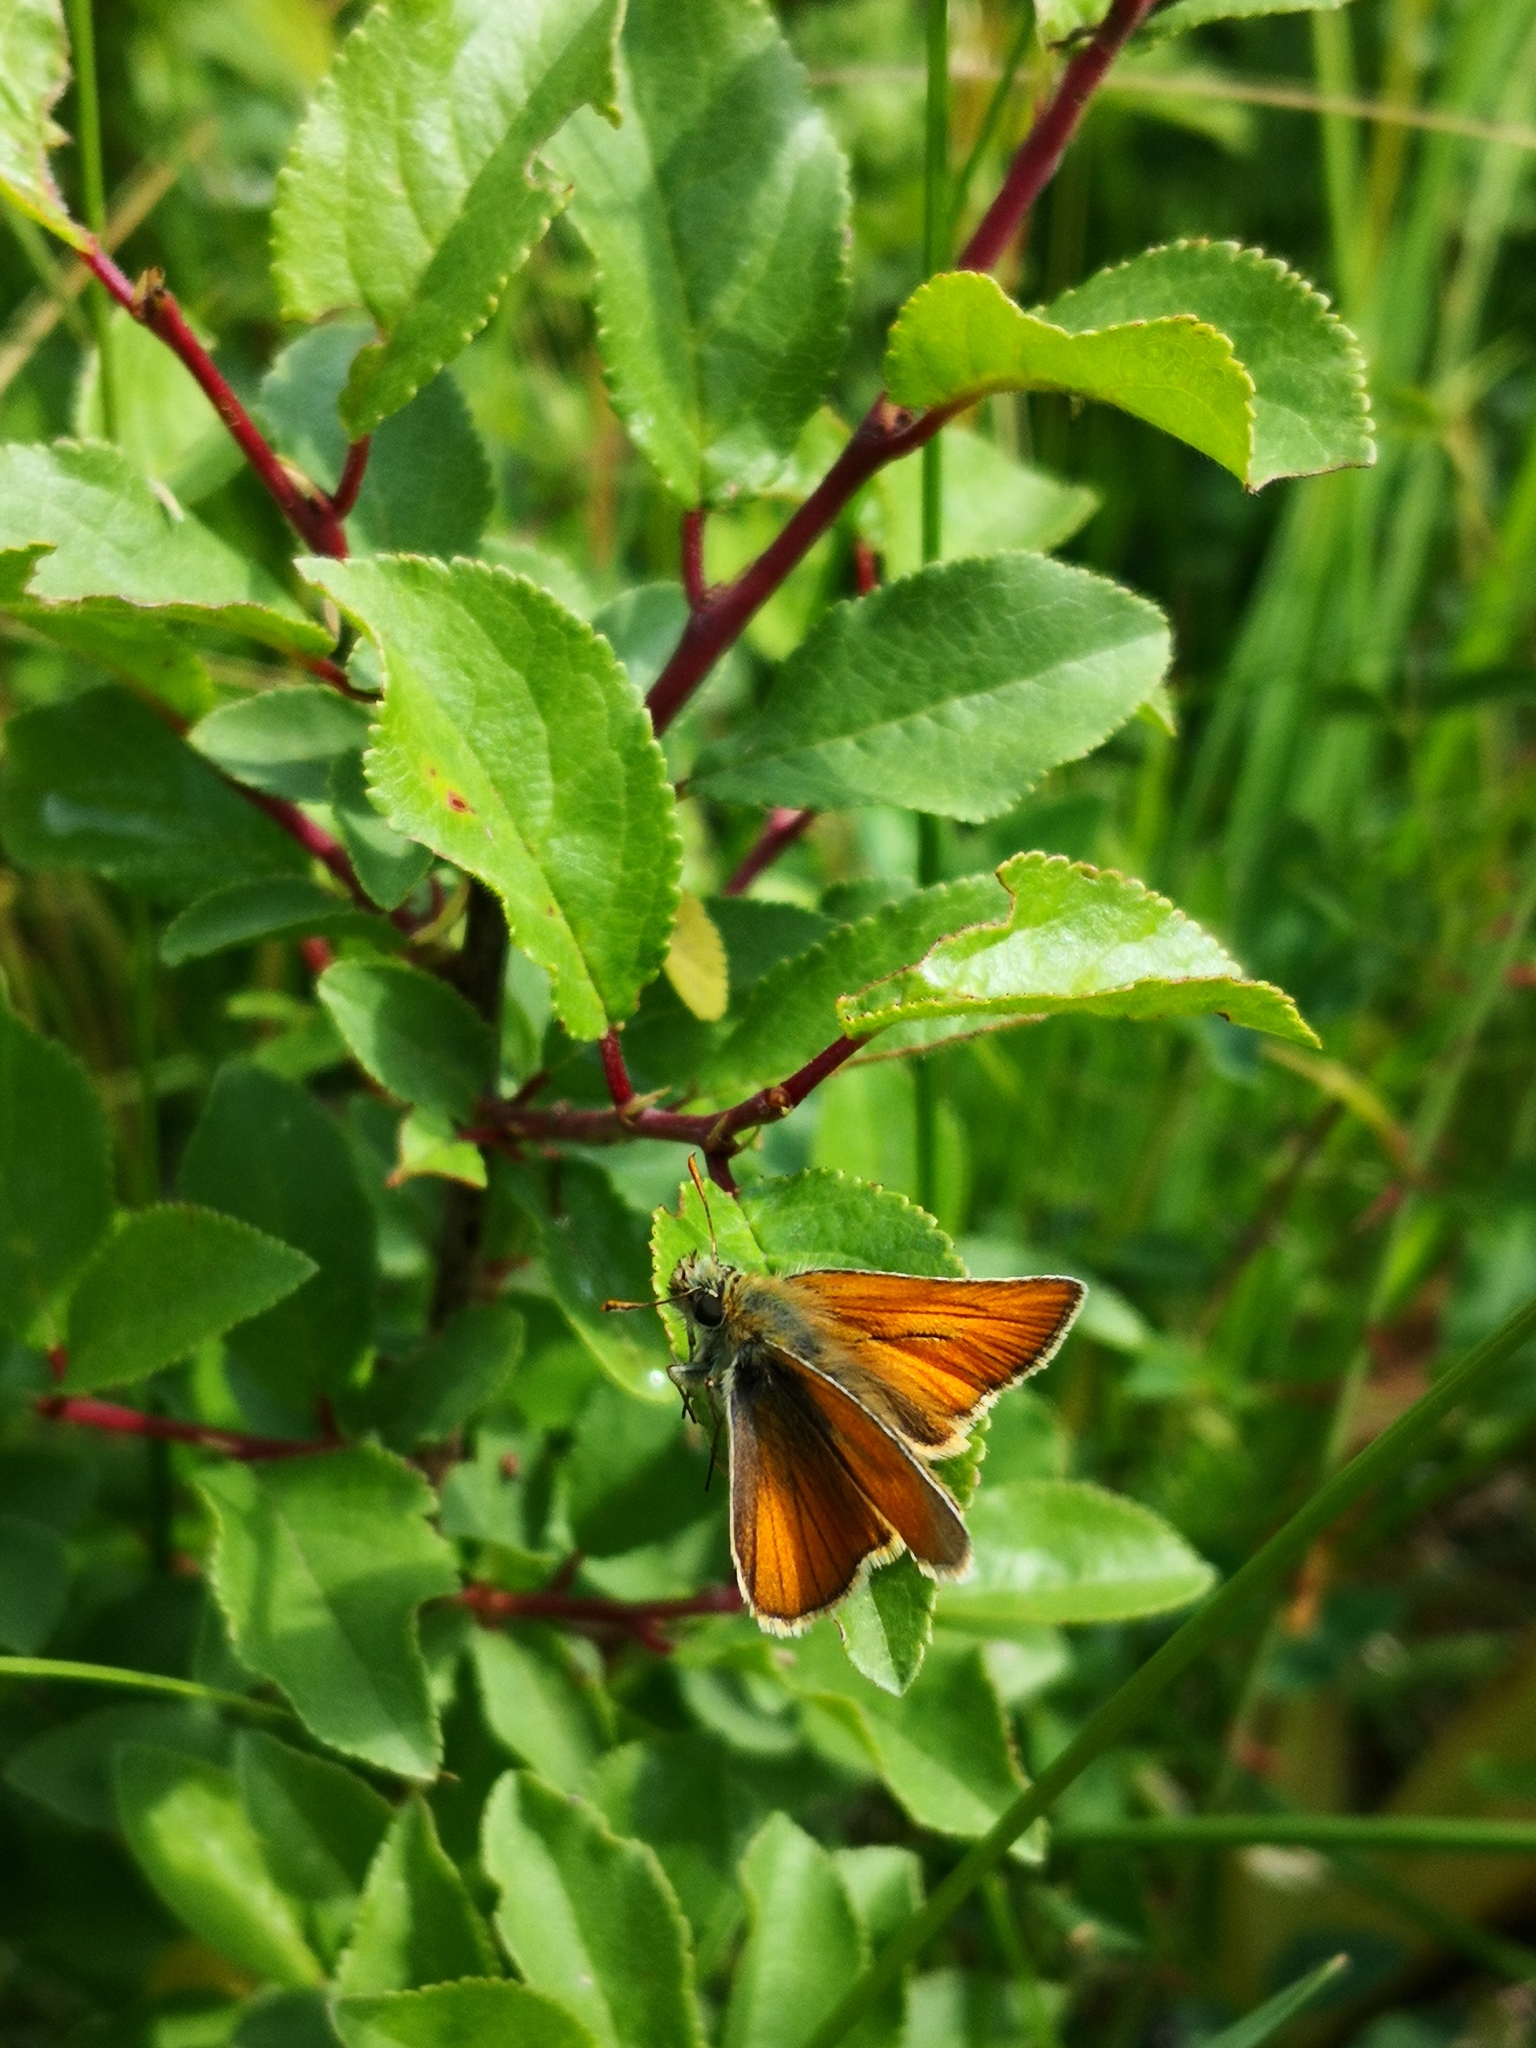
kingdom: Animalia
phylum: Arthropoda
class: Insecta
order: Lepidoptera
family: Hesperiidae
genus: Thymelicus
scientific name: Thymelicus sylvestris
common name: Small skipper
